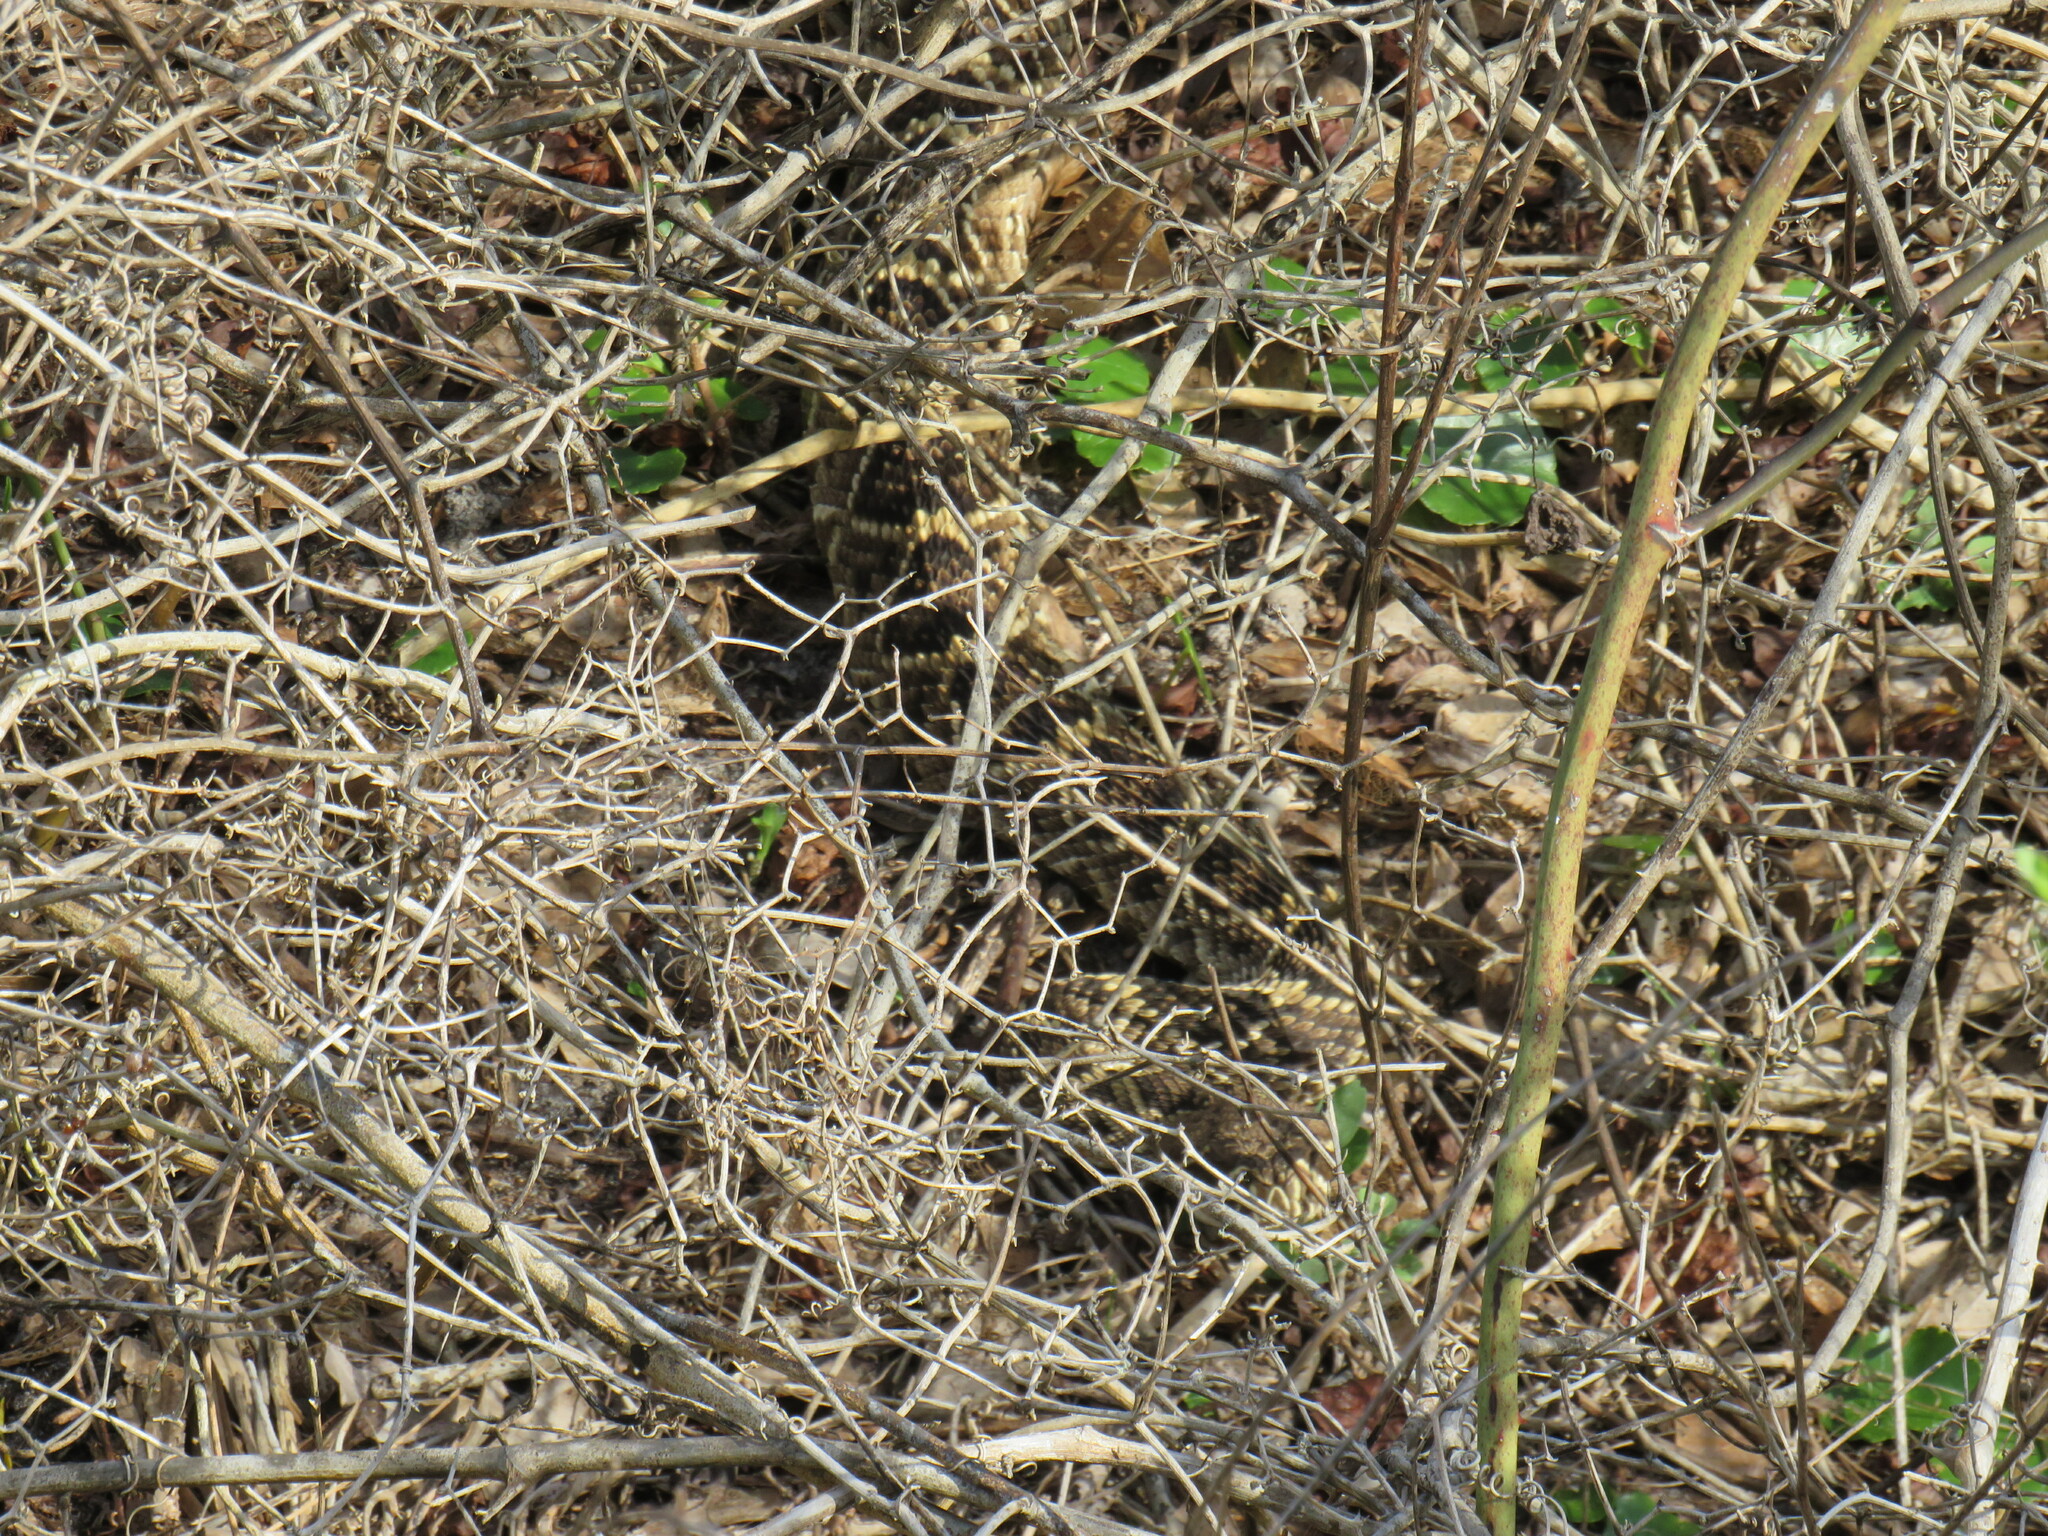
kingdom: Animalia
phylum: Chordata
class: Squamata
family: Viperidae
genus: Crotalus
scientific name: Crotalus adamanteus
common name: Eastern diamondback rattlesnake
